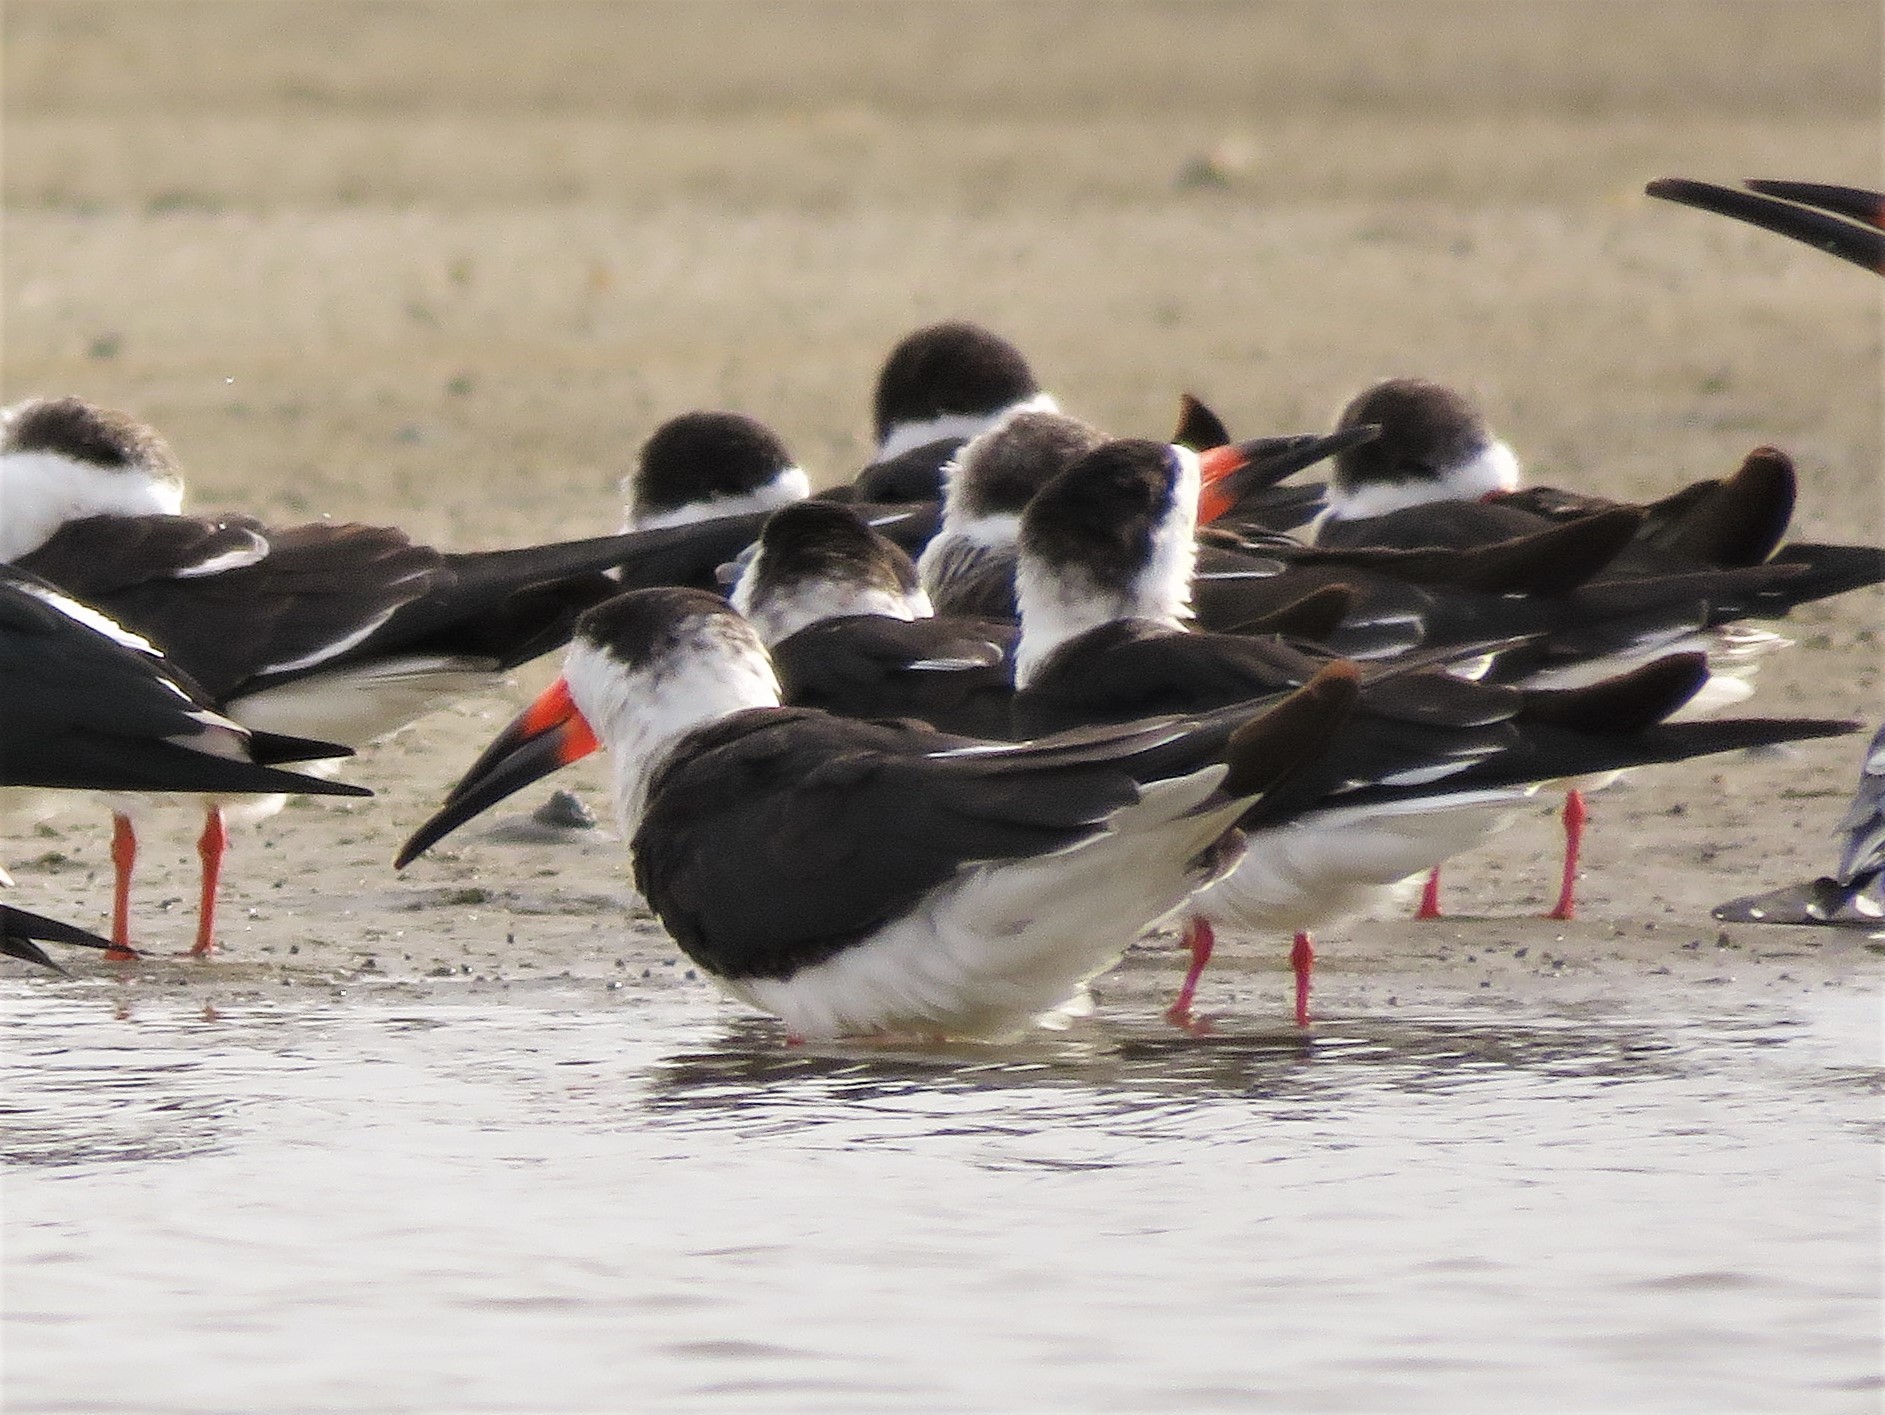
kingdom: Animalia
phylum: Chordata
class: Aves
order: Charadriiformes
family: Laridae
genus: Rynchops
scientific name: Rynchops niger
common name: Black skimmer
